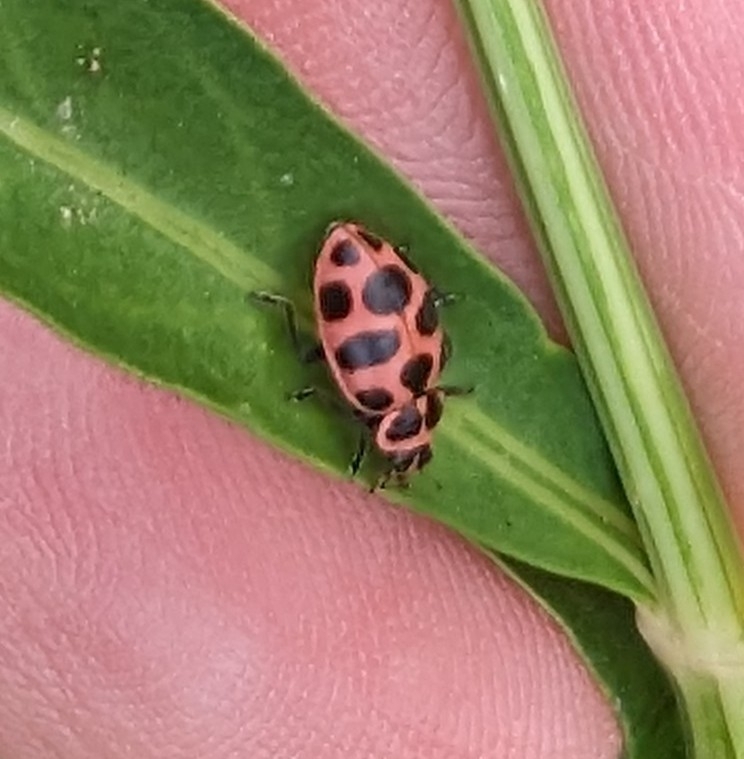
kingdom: Animalia
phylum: Arthropoda
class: Insecta
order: Coleoptera
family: Coccinellidae
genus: Coleomegilla
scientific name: Coleomegilla maculata
